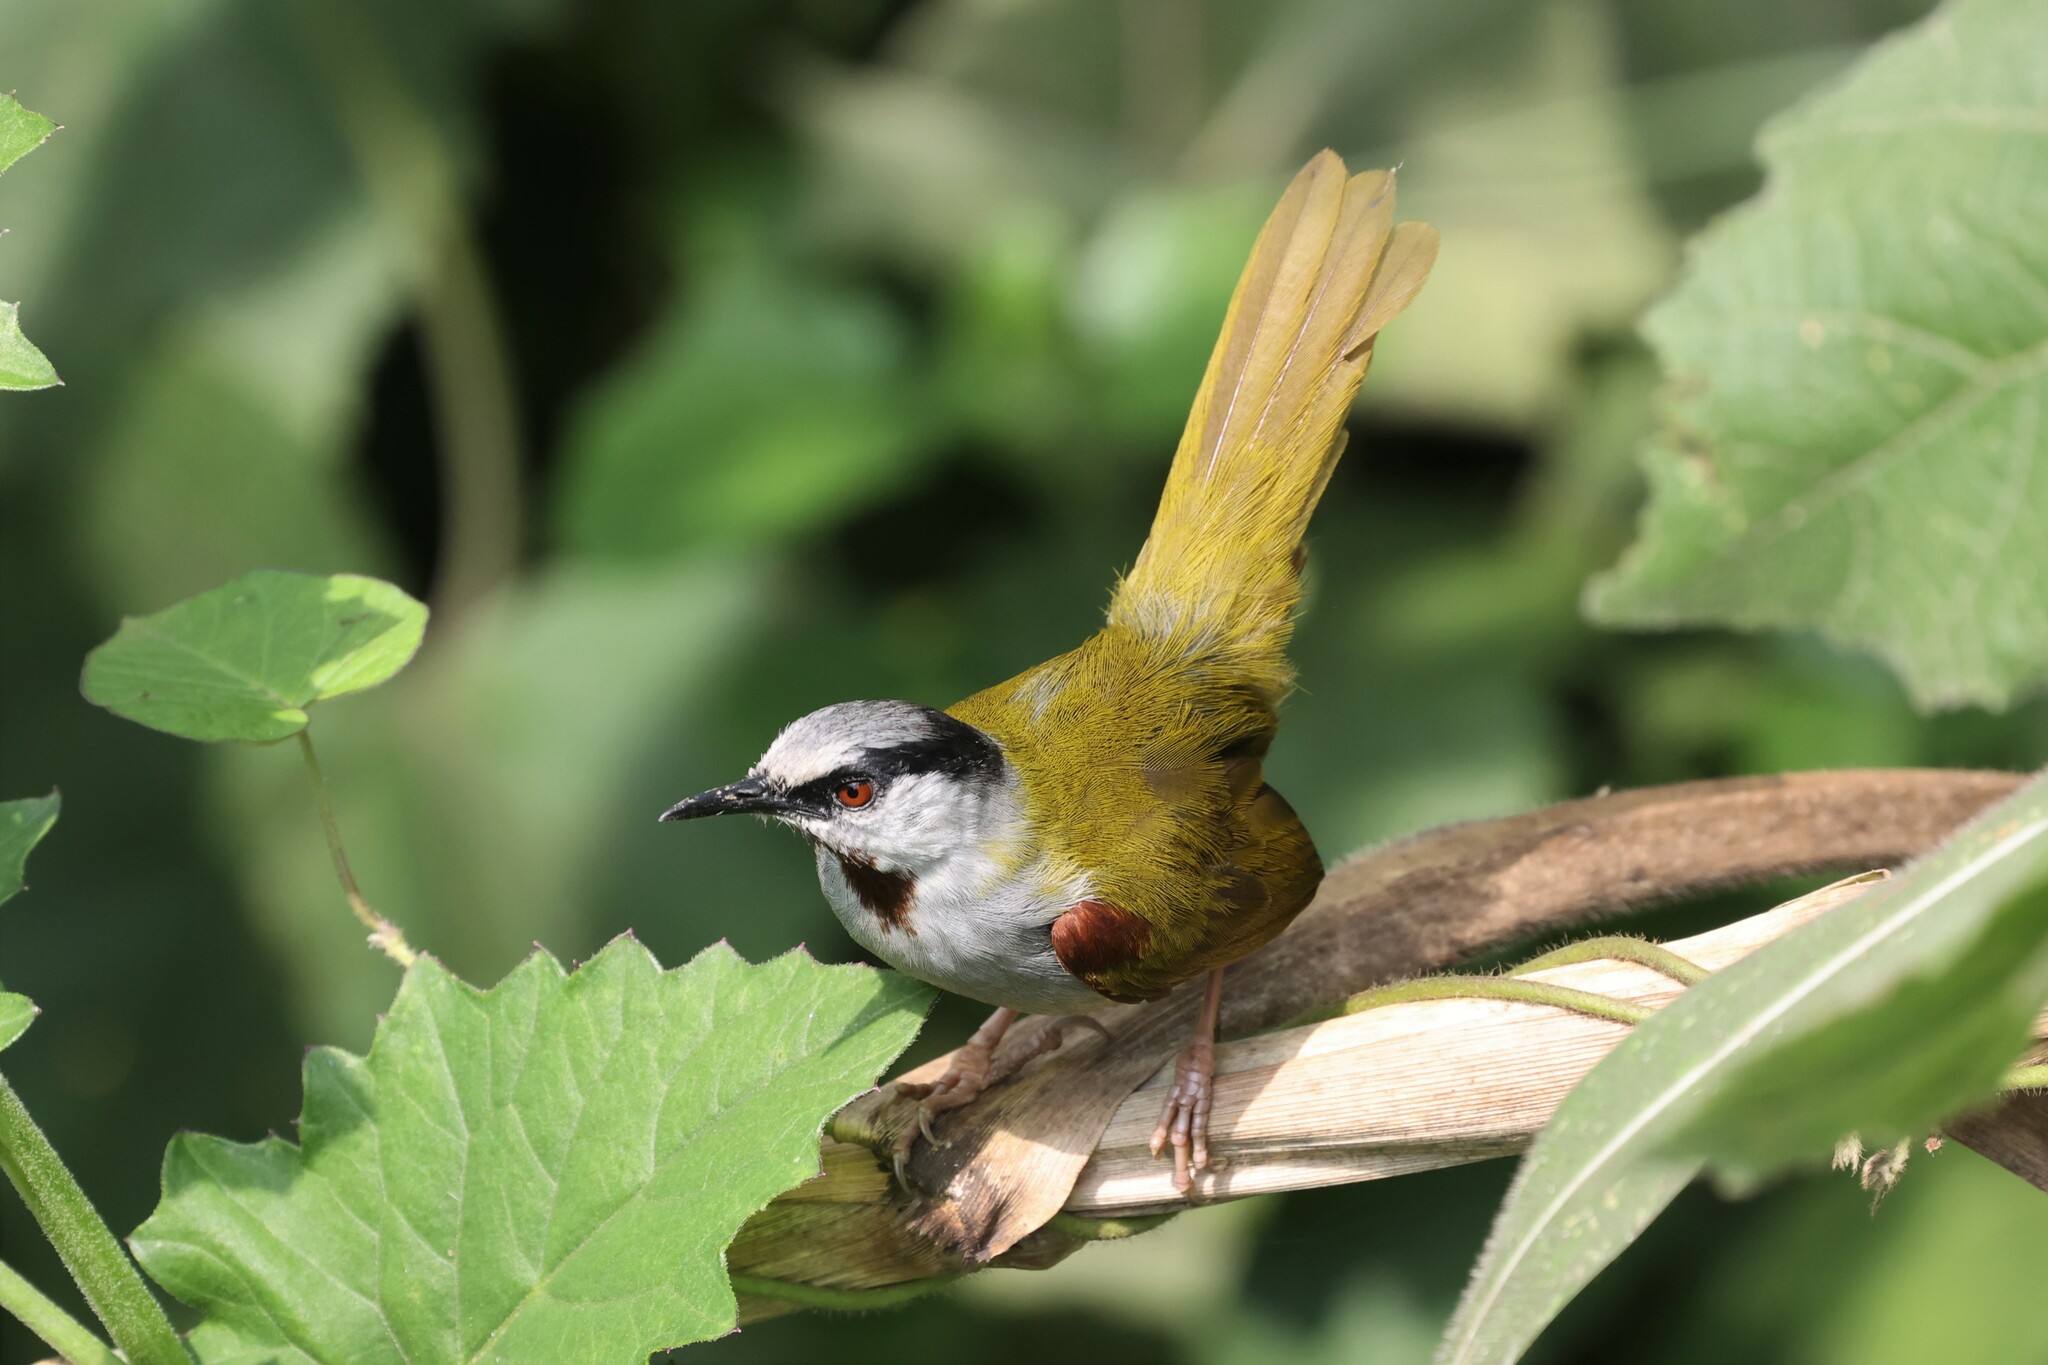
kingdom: Animalia
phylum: Chordata
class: Aves
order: Passeriformes
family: Cisticolidae
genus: Eminia
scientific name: Eminia lepida
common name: Grey-capped warbler
